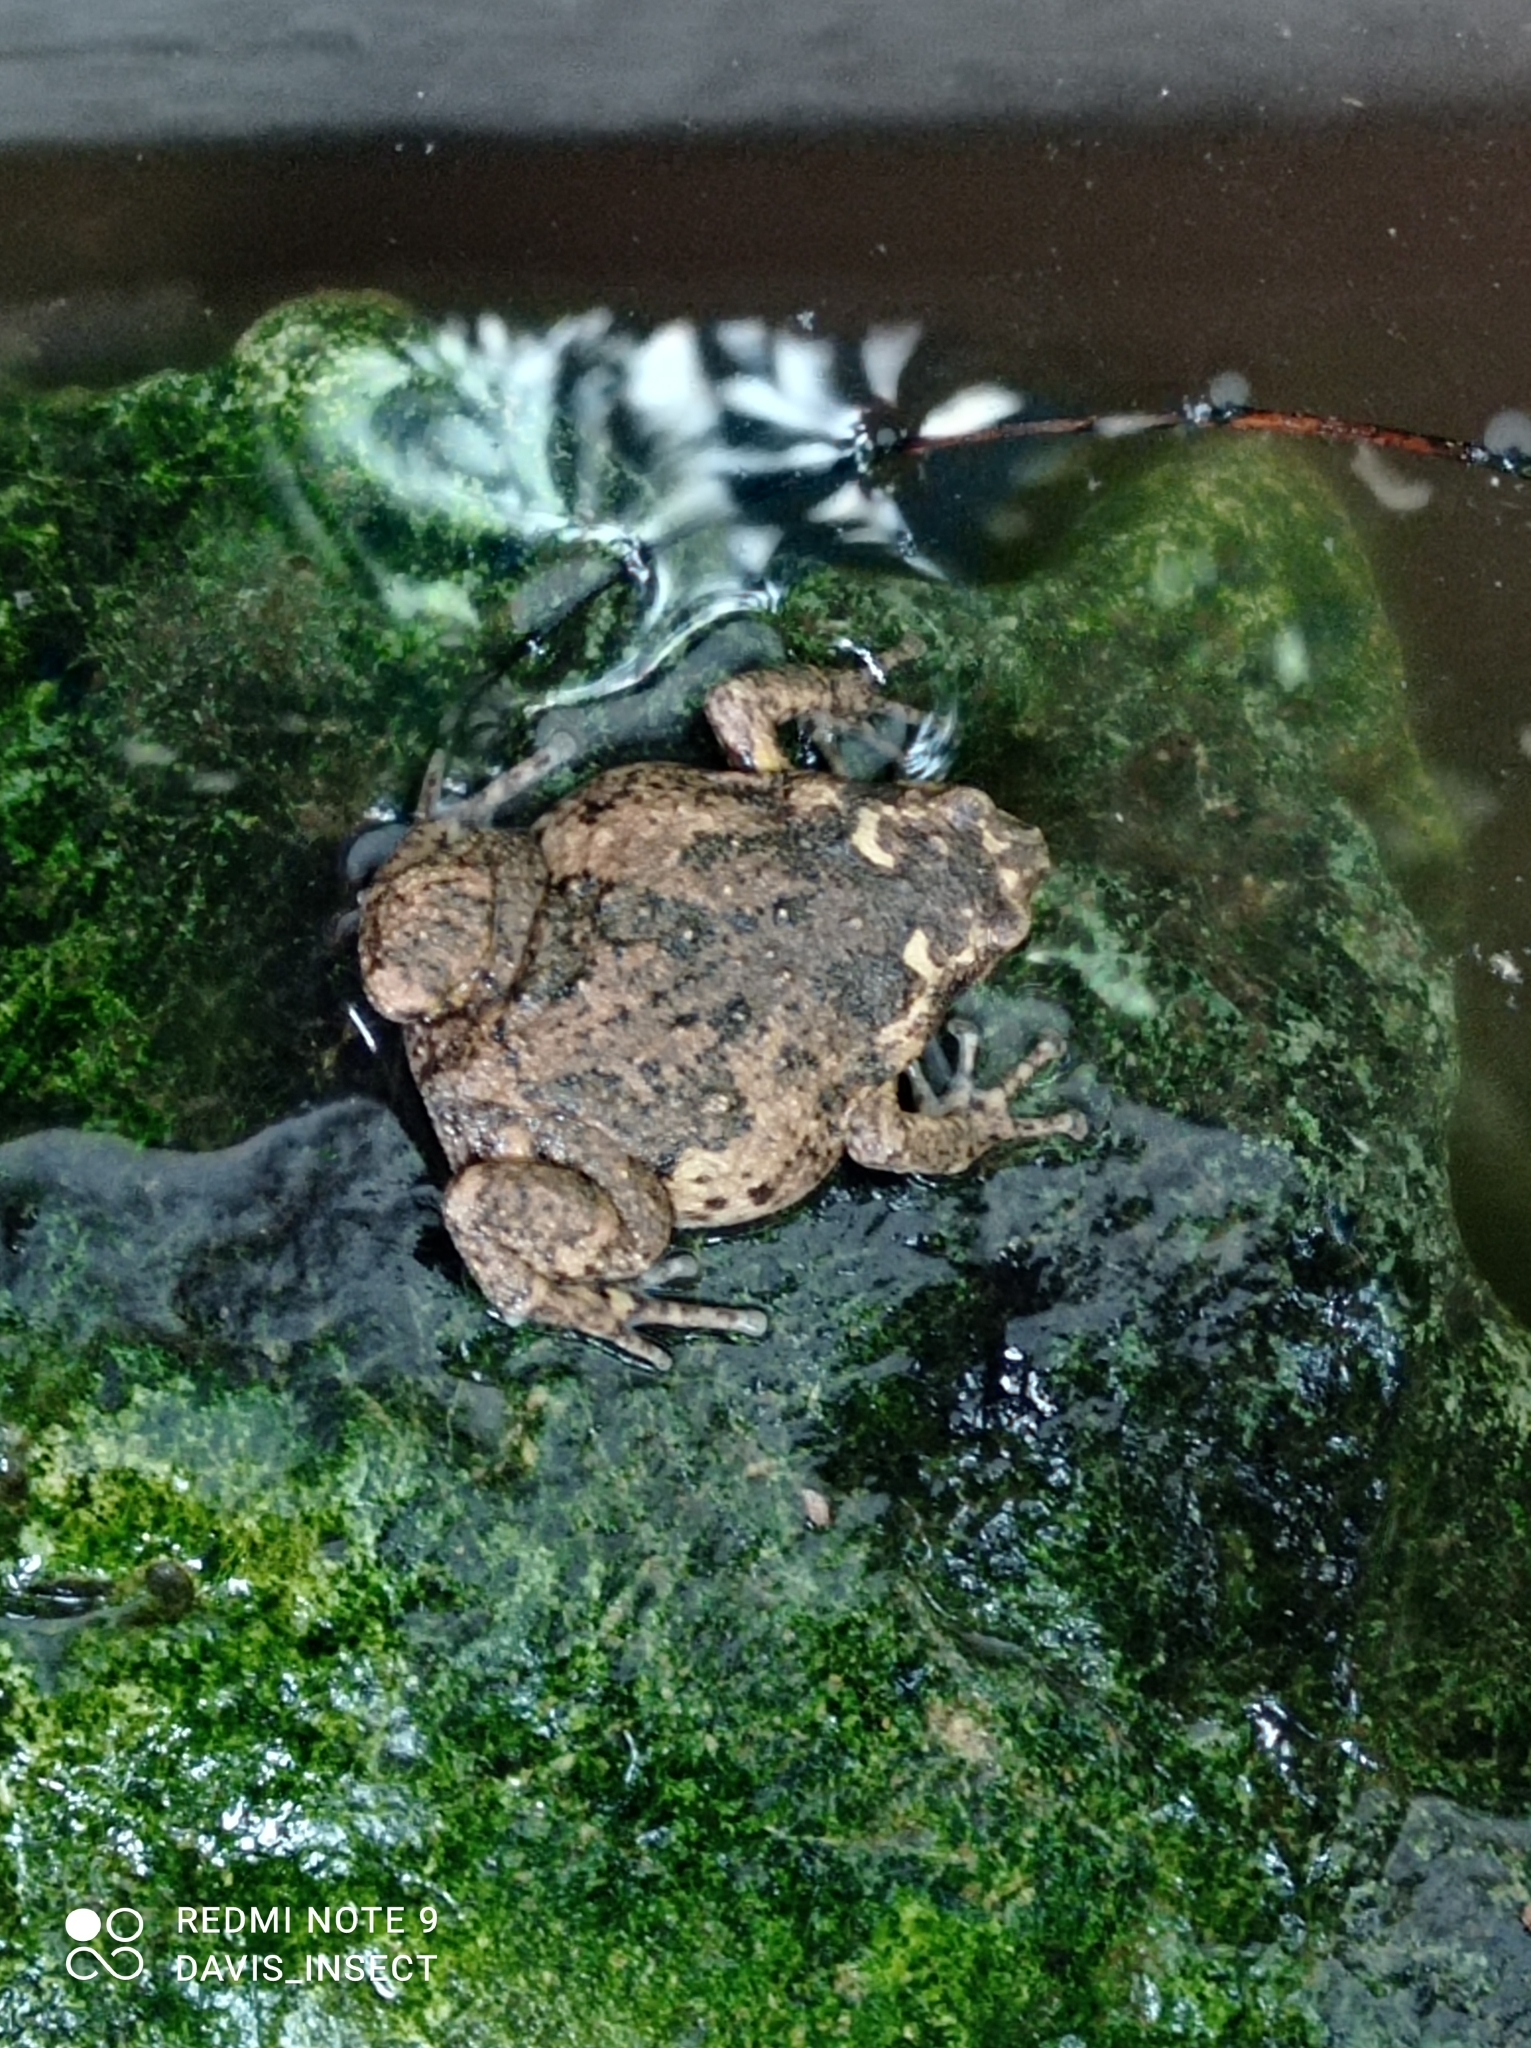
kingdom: Animalia
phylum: Chordata
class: Amphibia
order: Anura
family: Microhylidae
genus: Kaloula
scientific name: Kaloula baleata
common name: Brown,javanese bullfrog
